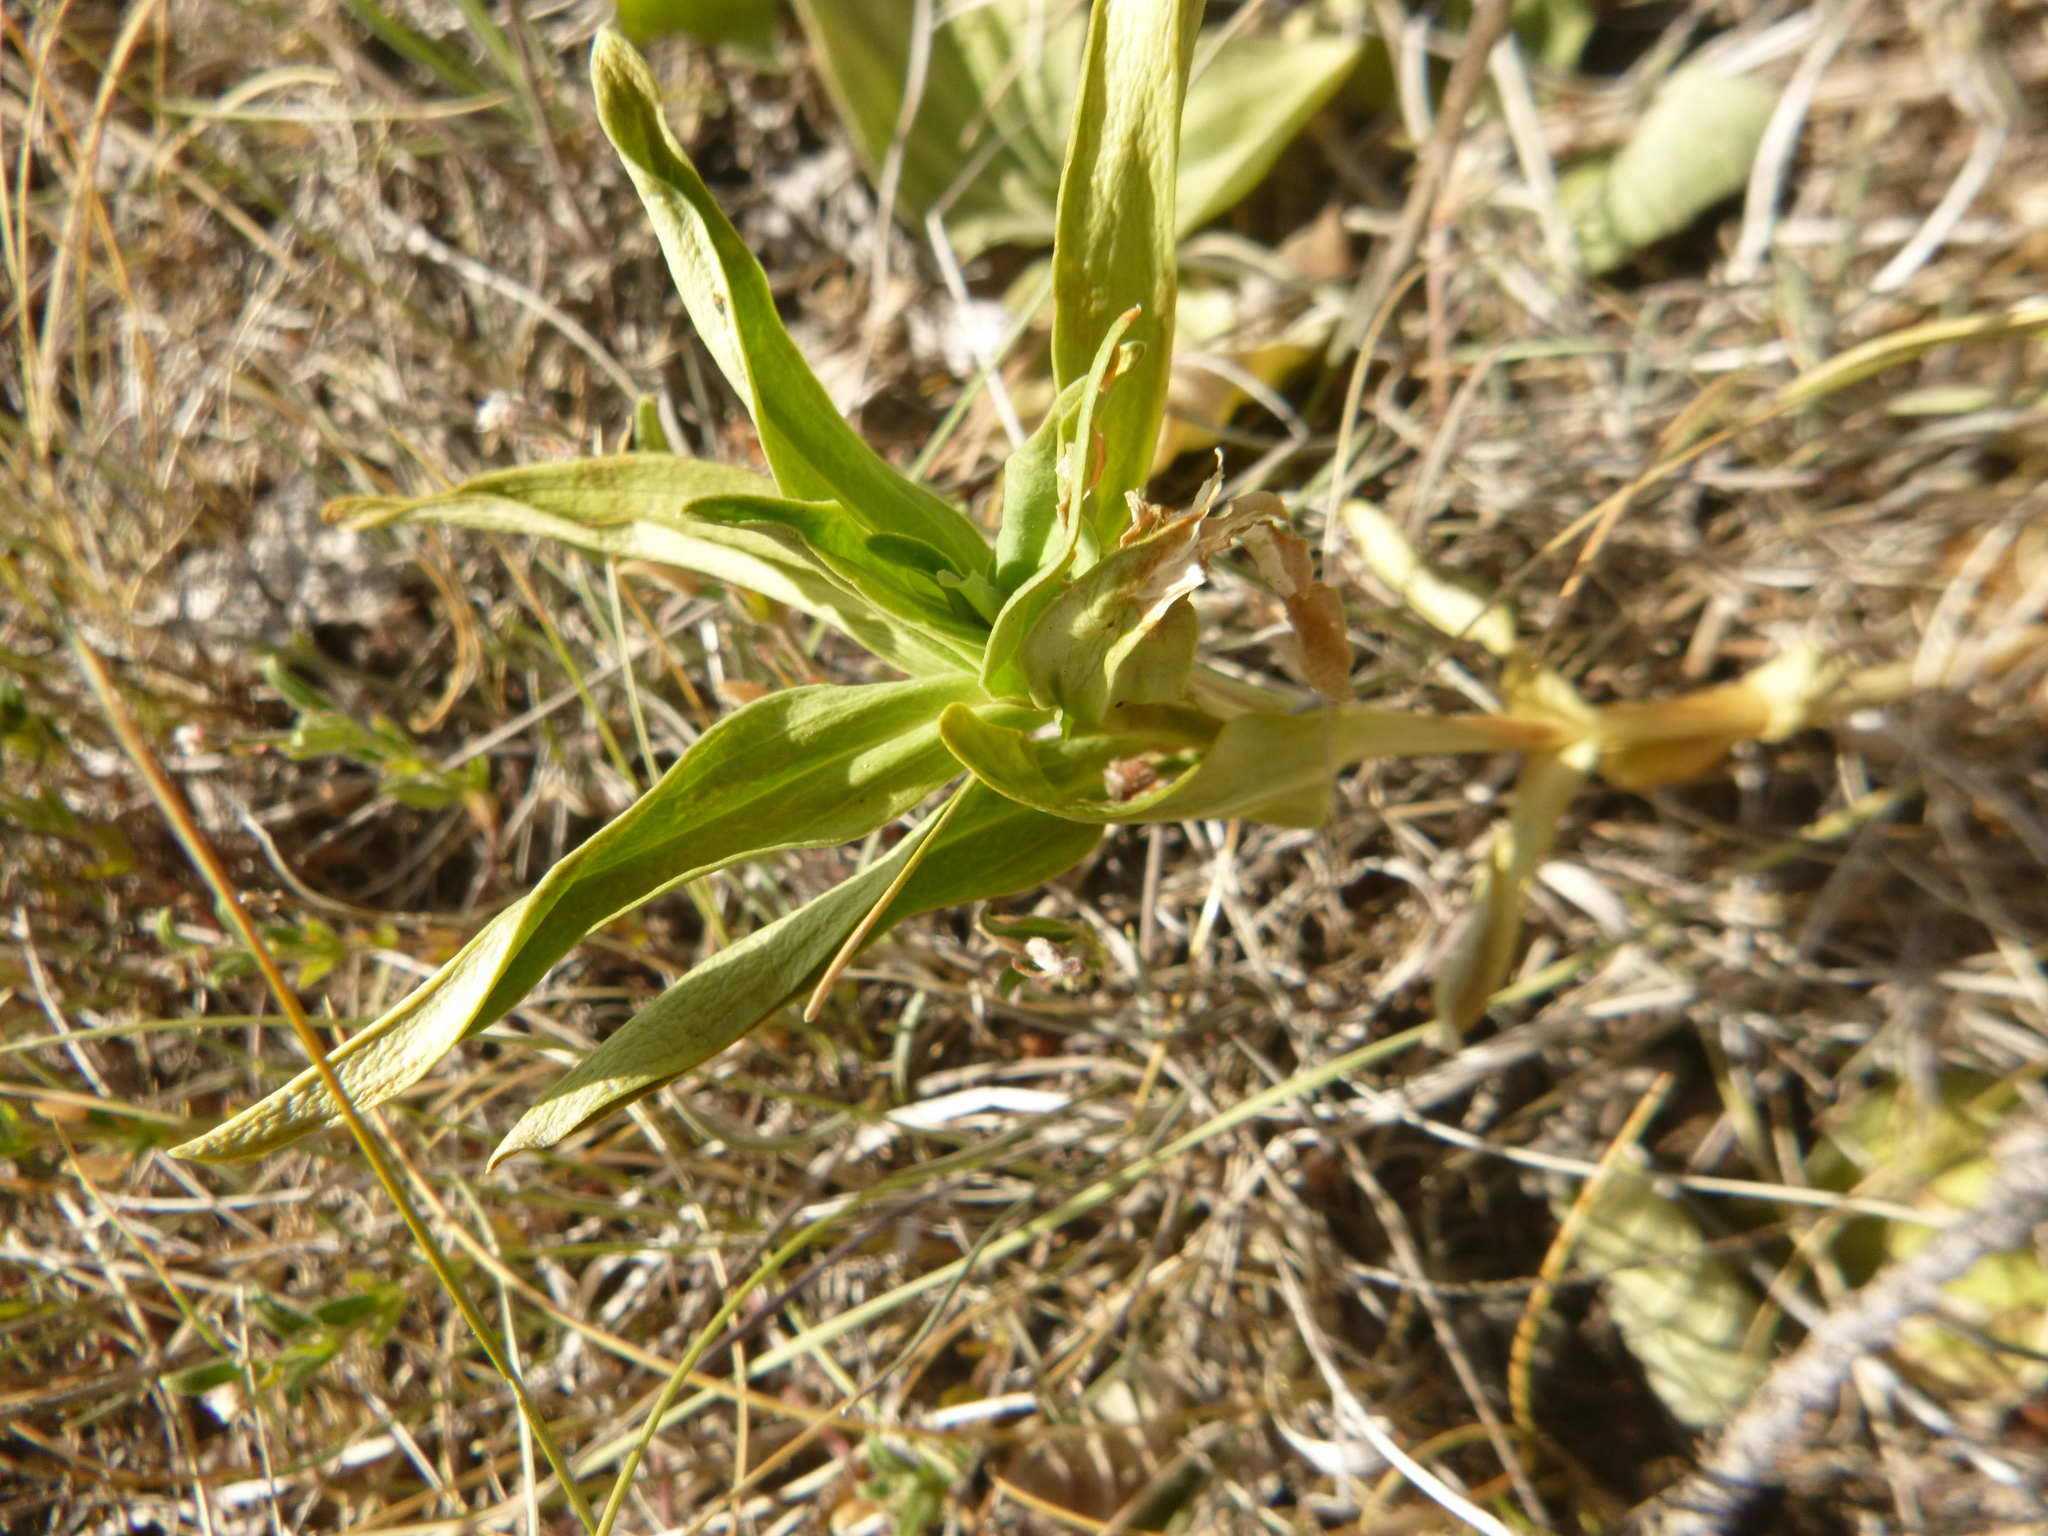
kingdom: Plantae
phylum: Tracheophyta
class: Magnoliopsida
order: Gentianales
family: Gentianaceae
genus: Gentiana
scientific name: Gentiana cruciata
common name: Cross gentian
